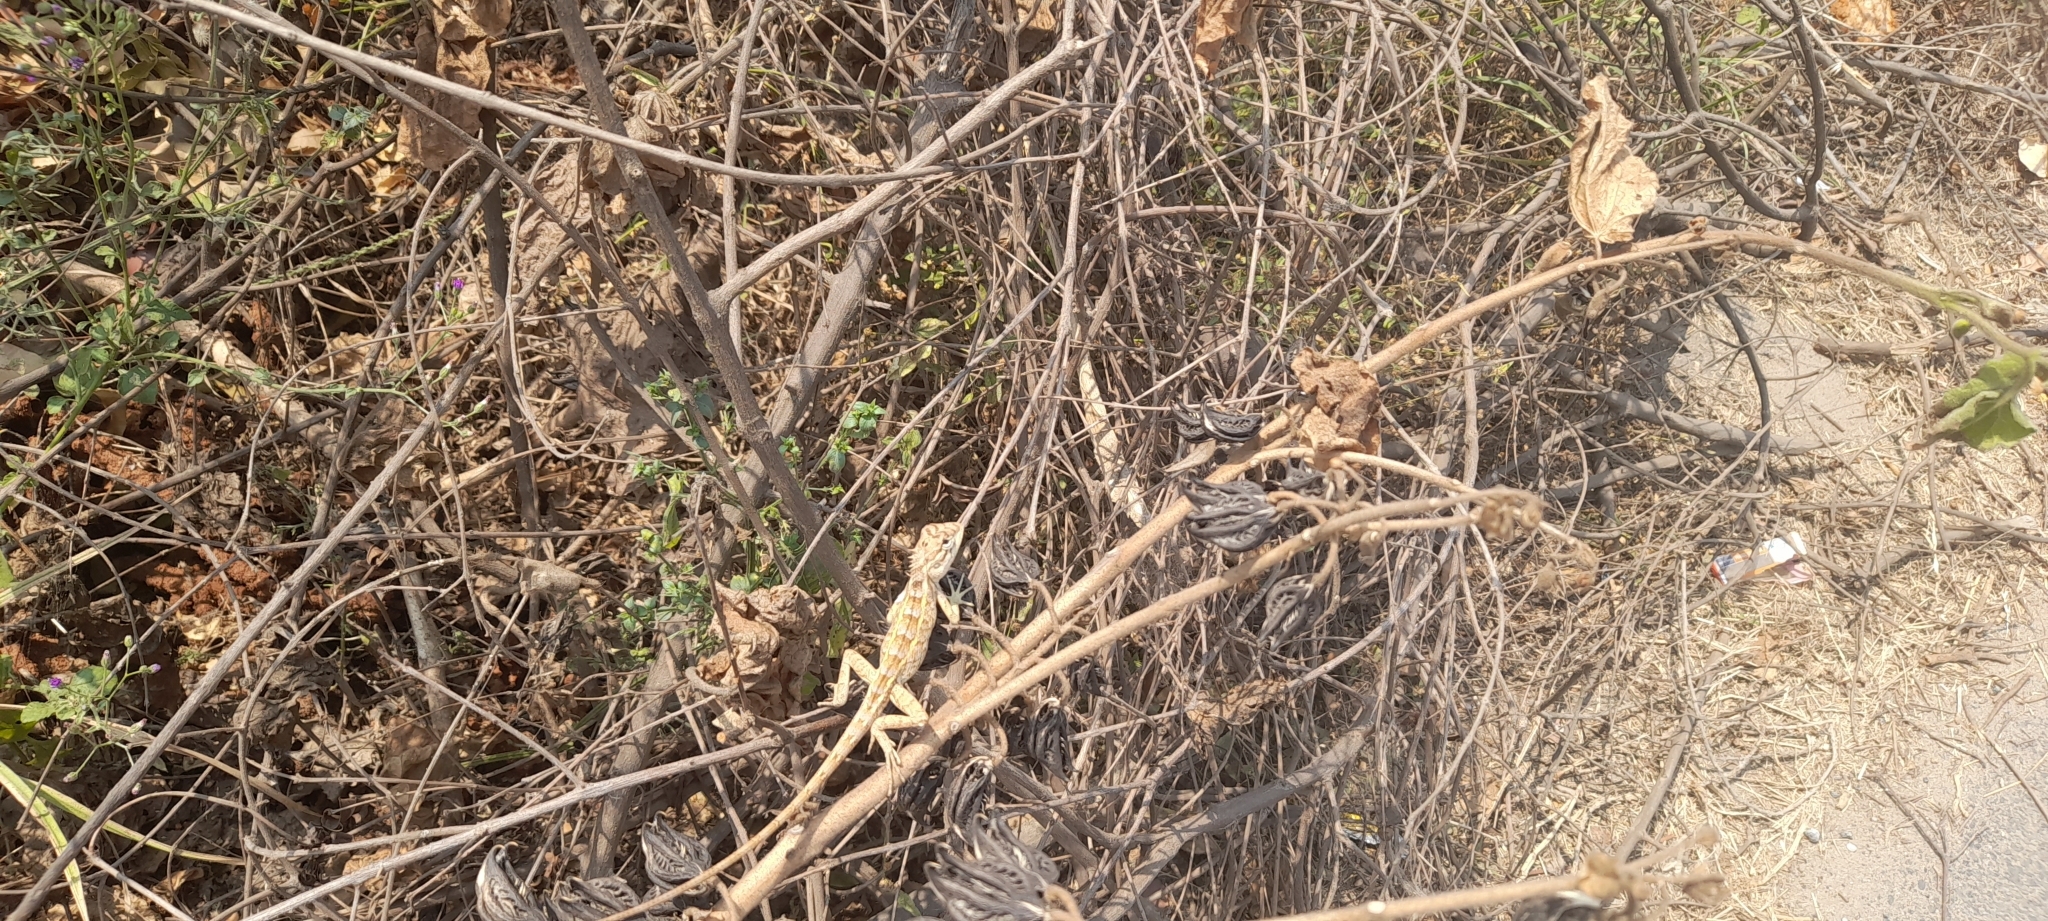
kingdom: Animalia
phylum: Chordata
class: Squamata
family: Agamidae
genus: Calotes
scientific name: Calotes versicolor
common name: Oriental garden lizard
